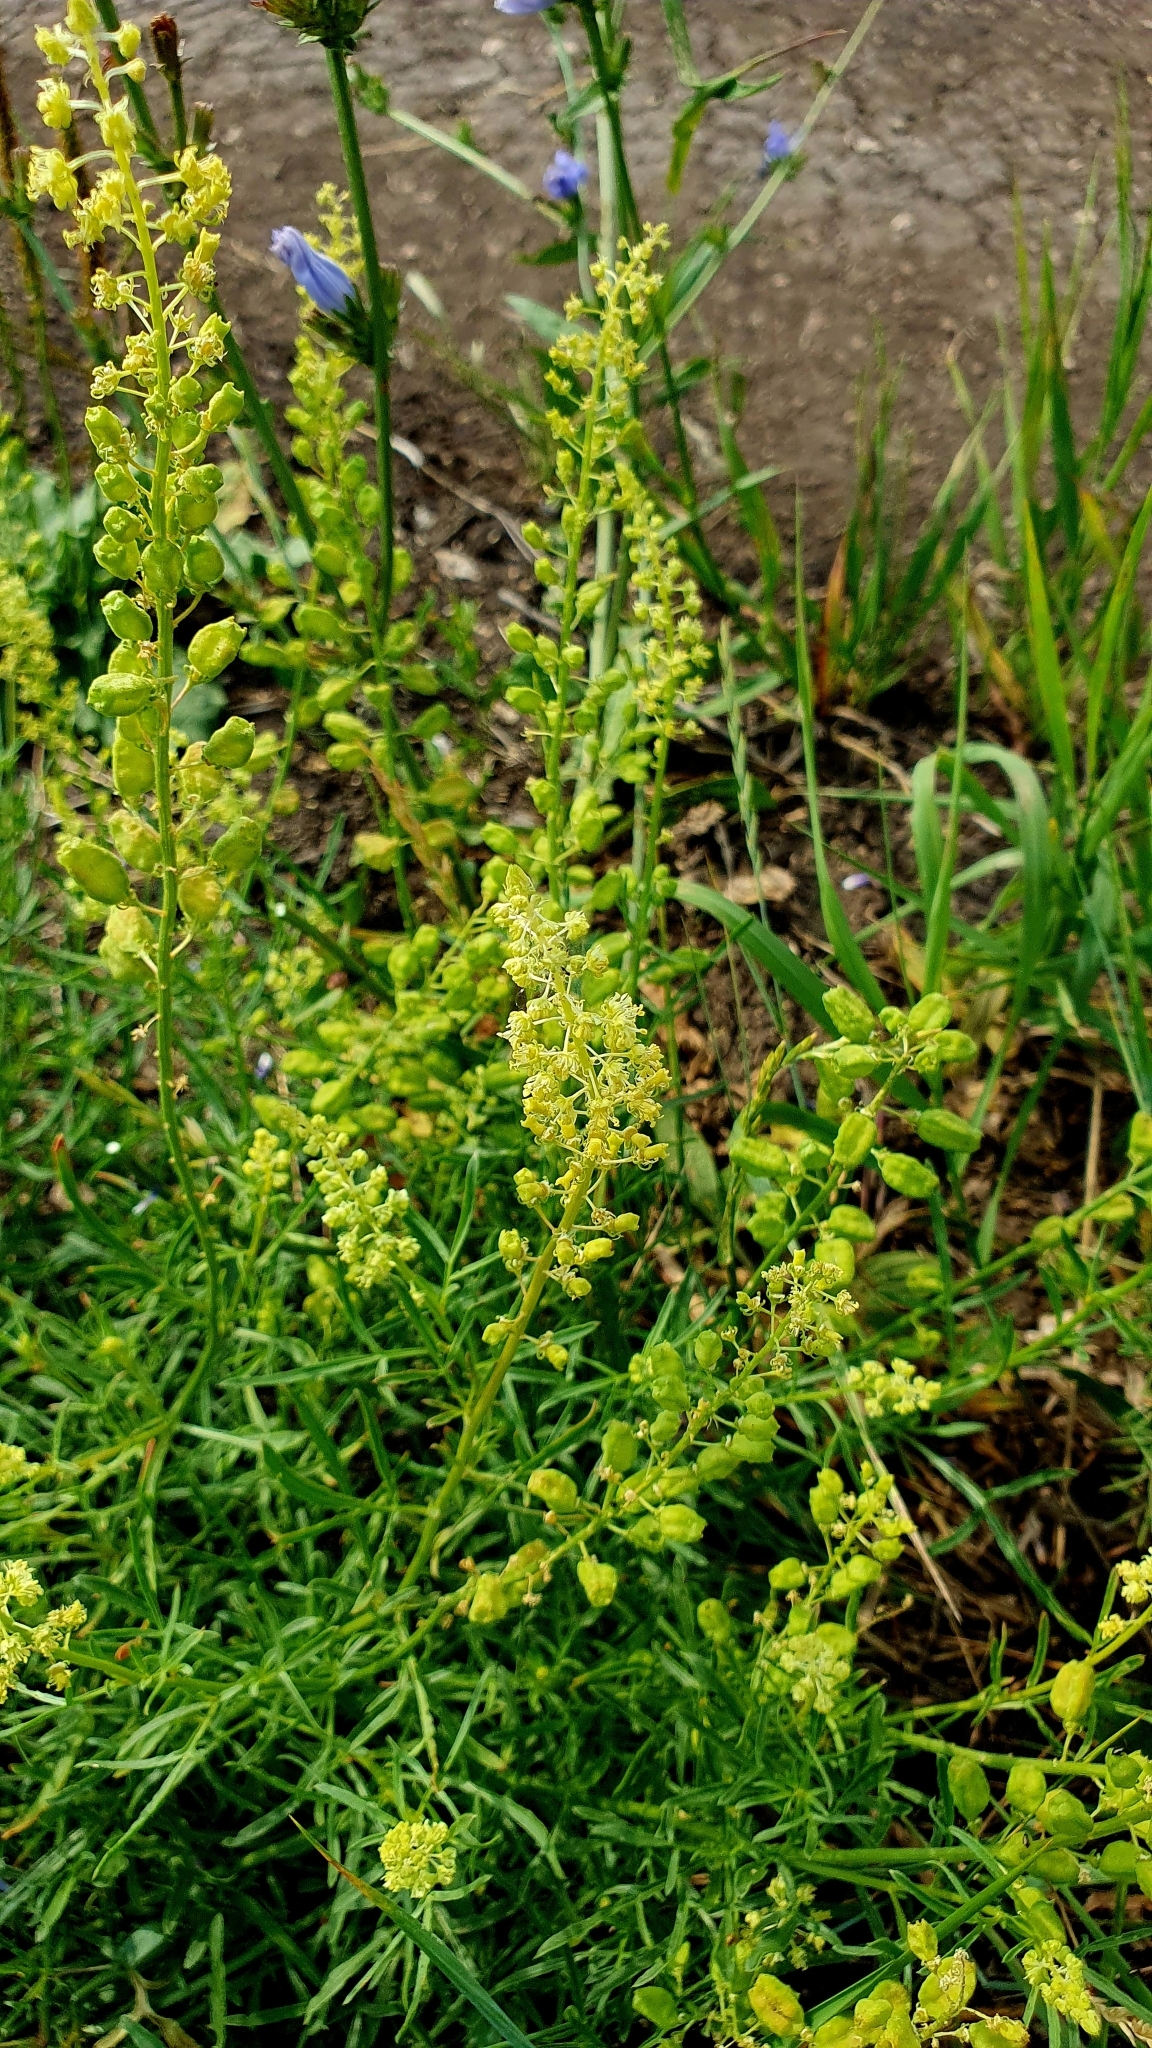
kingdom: Plantae
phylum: Tracheophyta
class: Magnoliopsida
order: Brassicales
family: Resedaceae
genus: Reseda
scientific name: Reseda lutea
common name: Wild mignonette
